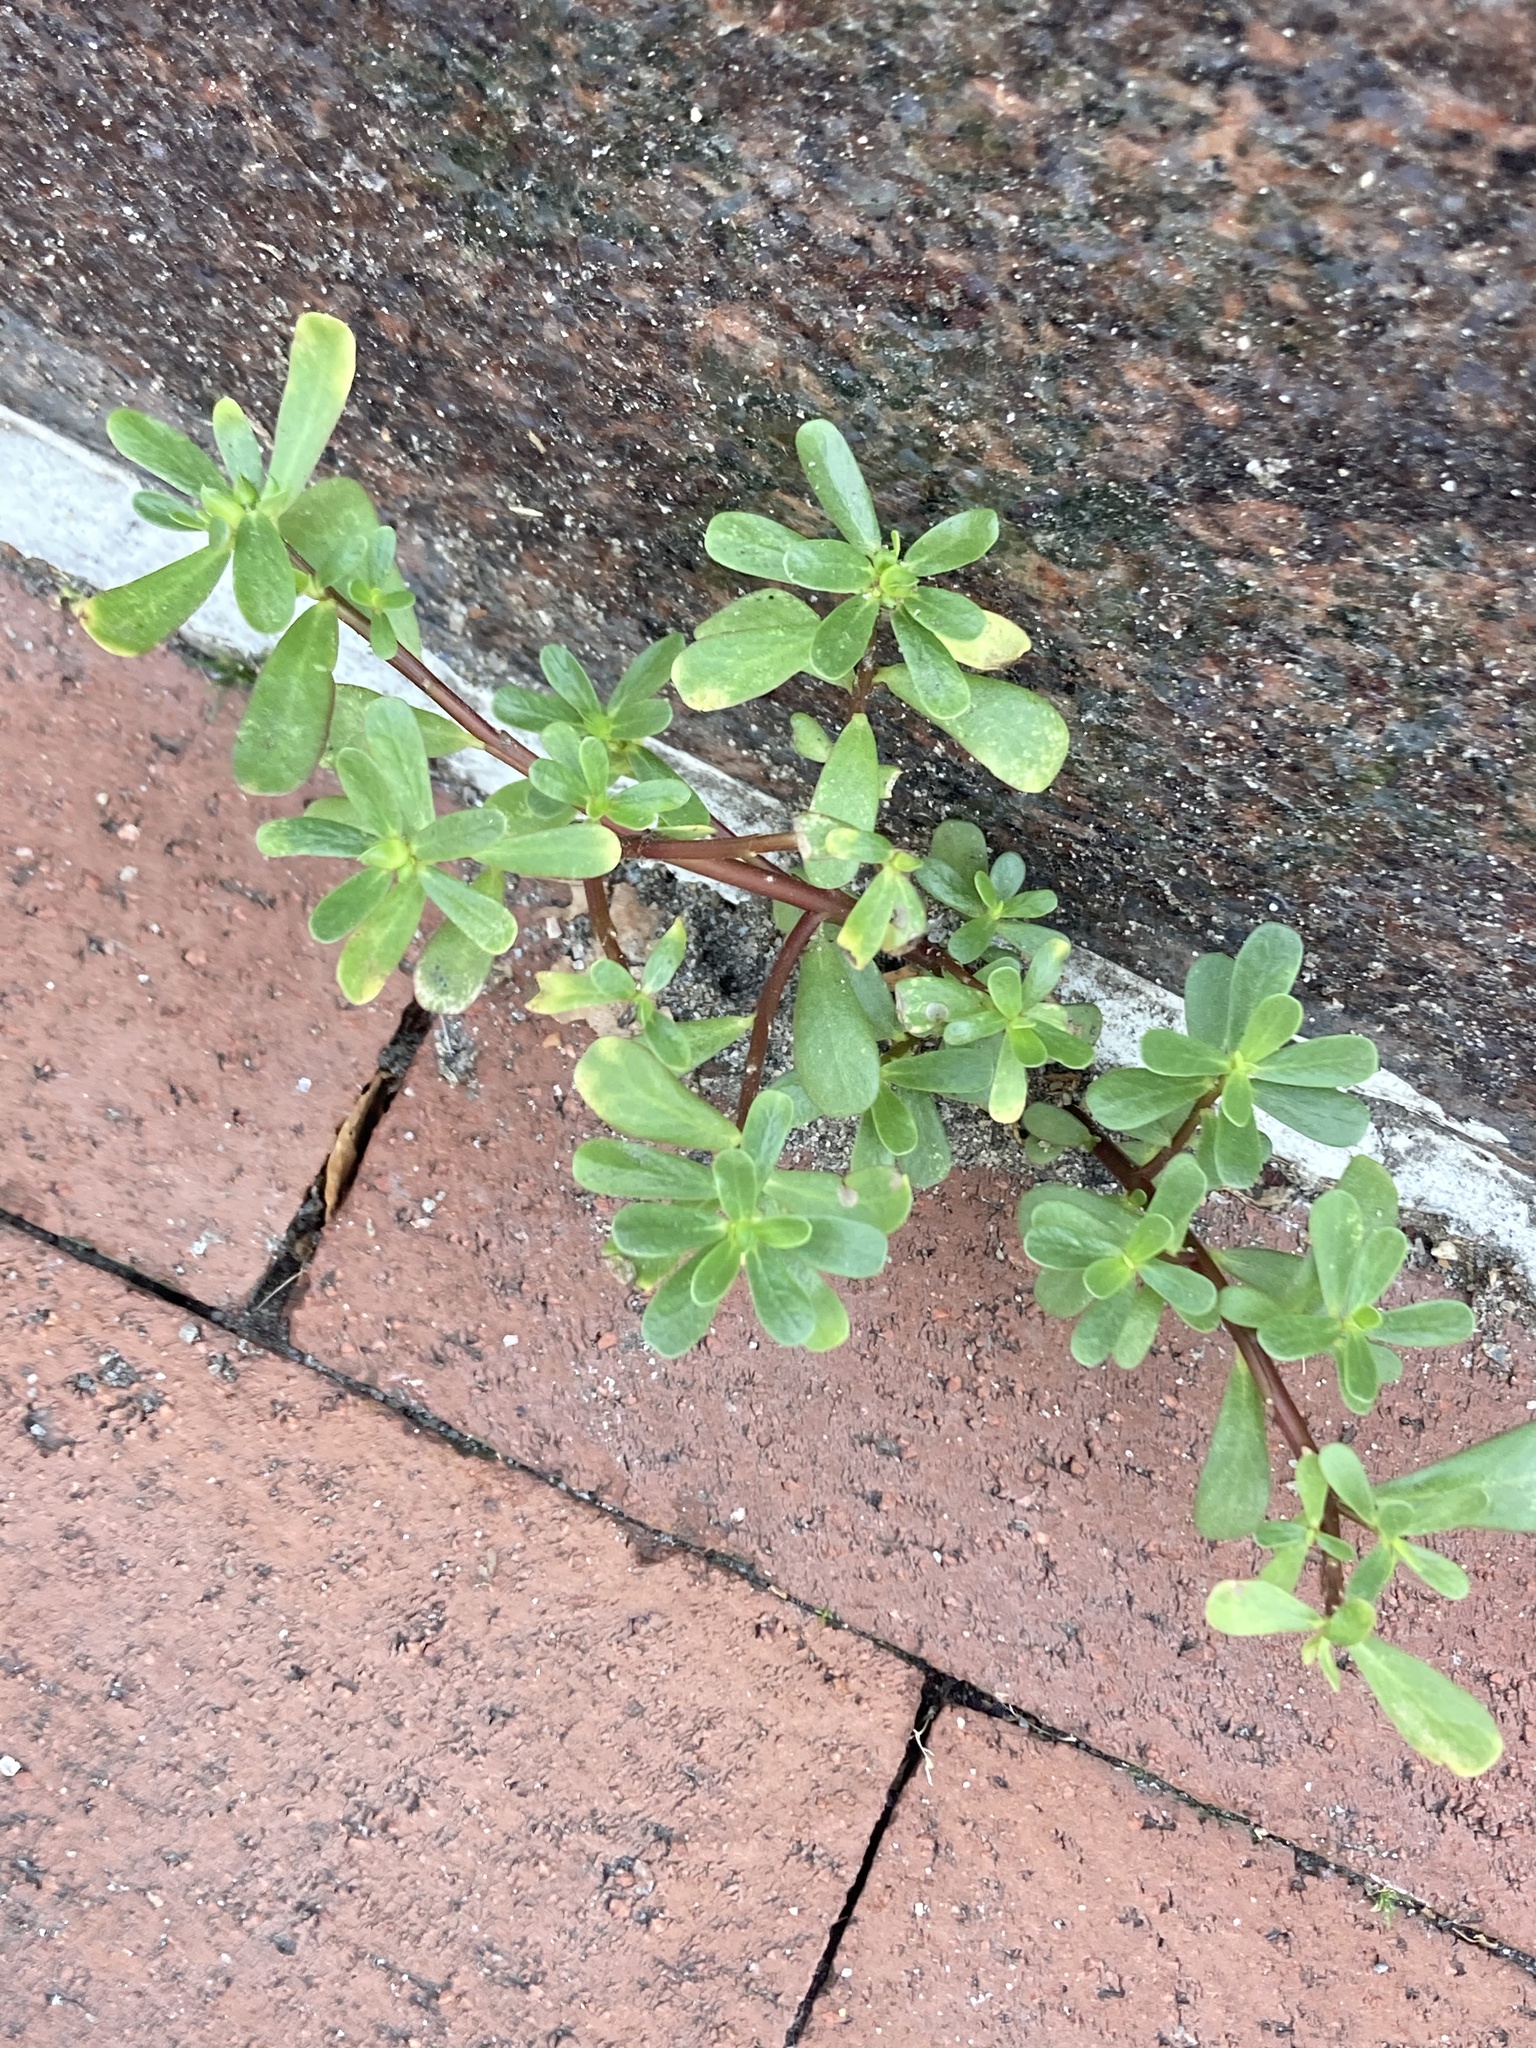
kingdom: Plantae
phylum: Tracheophyta
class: Magnoliopsida
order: Caryophyllales
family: Portulacaceae
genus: Portulaca
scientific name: Portulaca oleracea
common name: Common purslane
